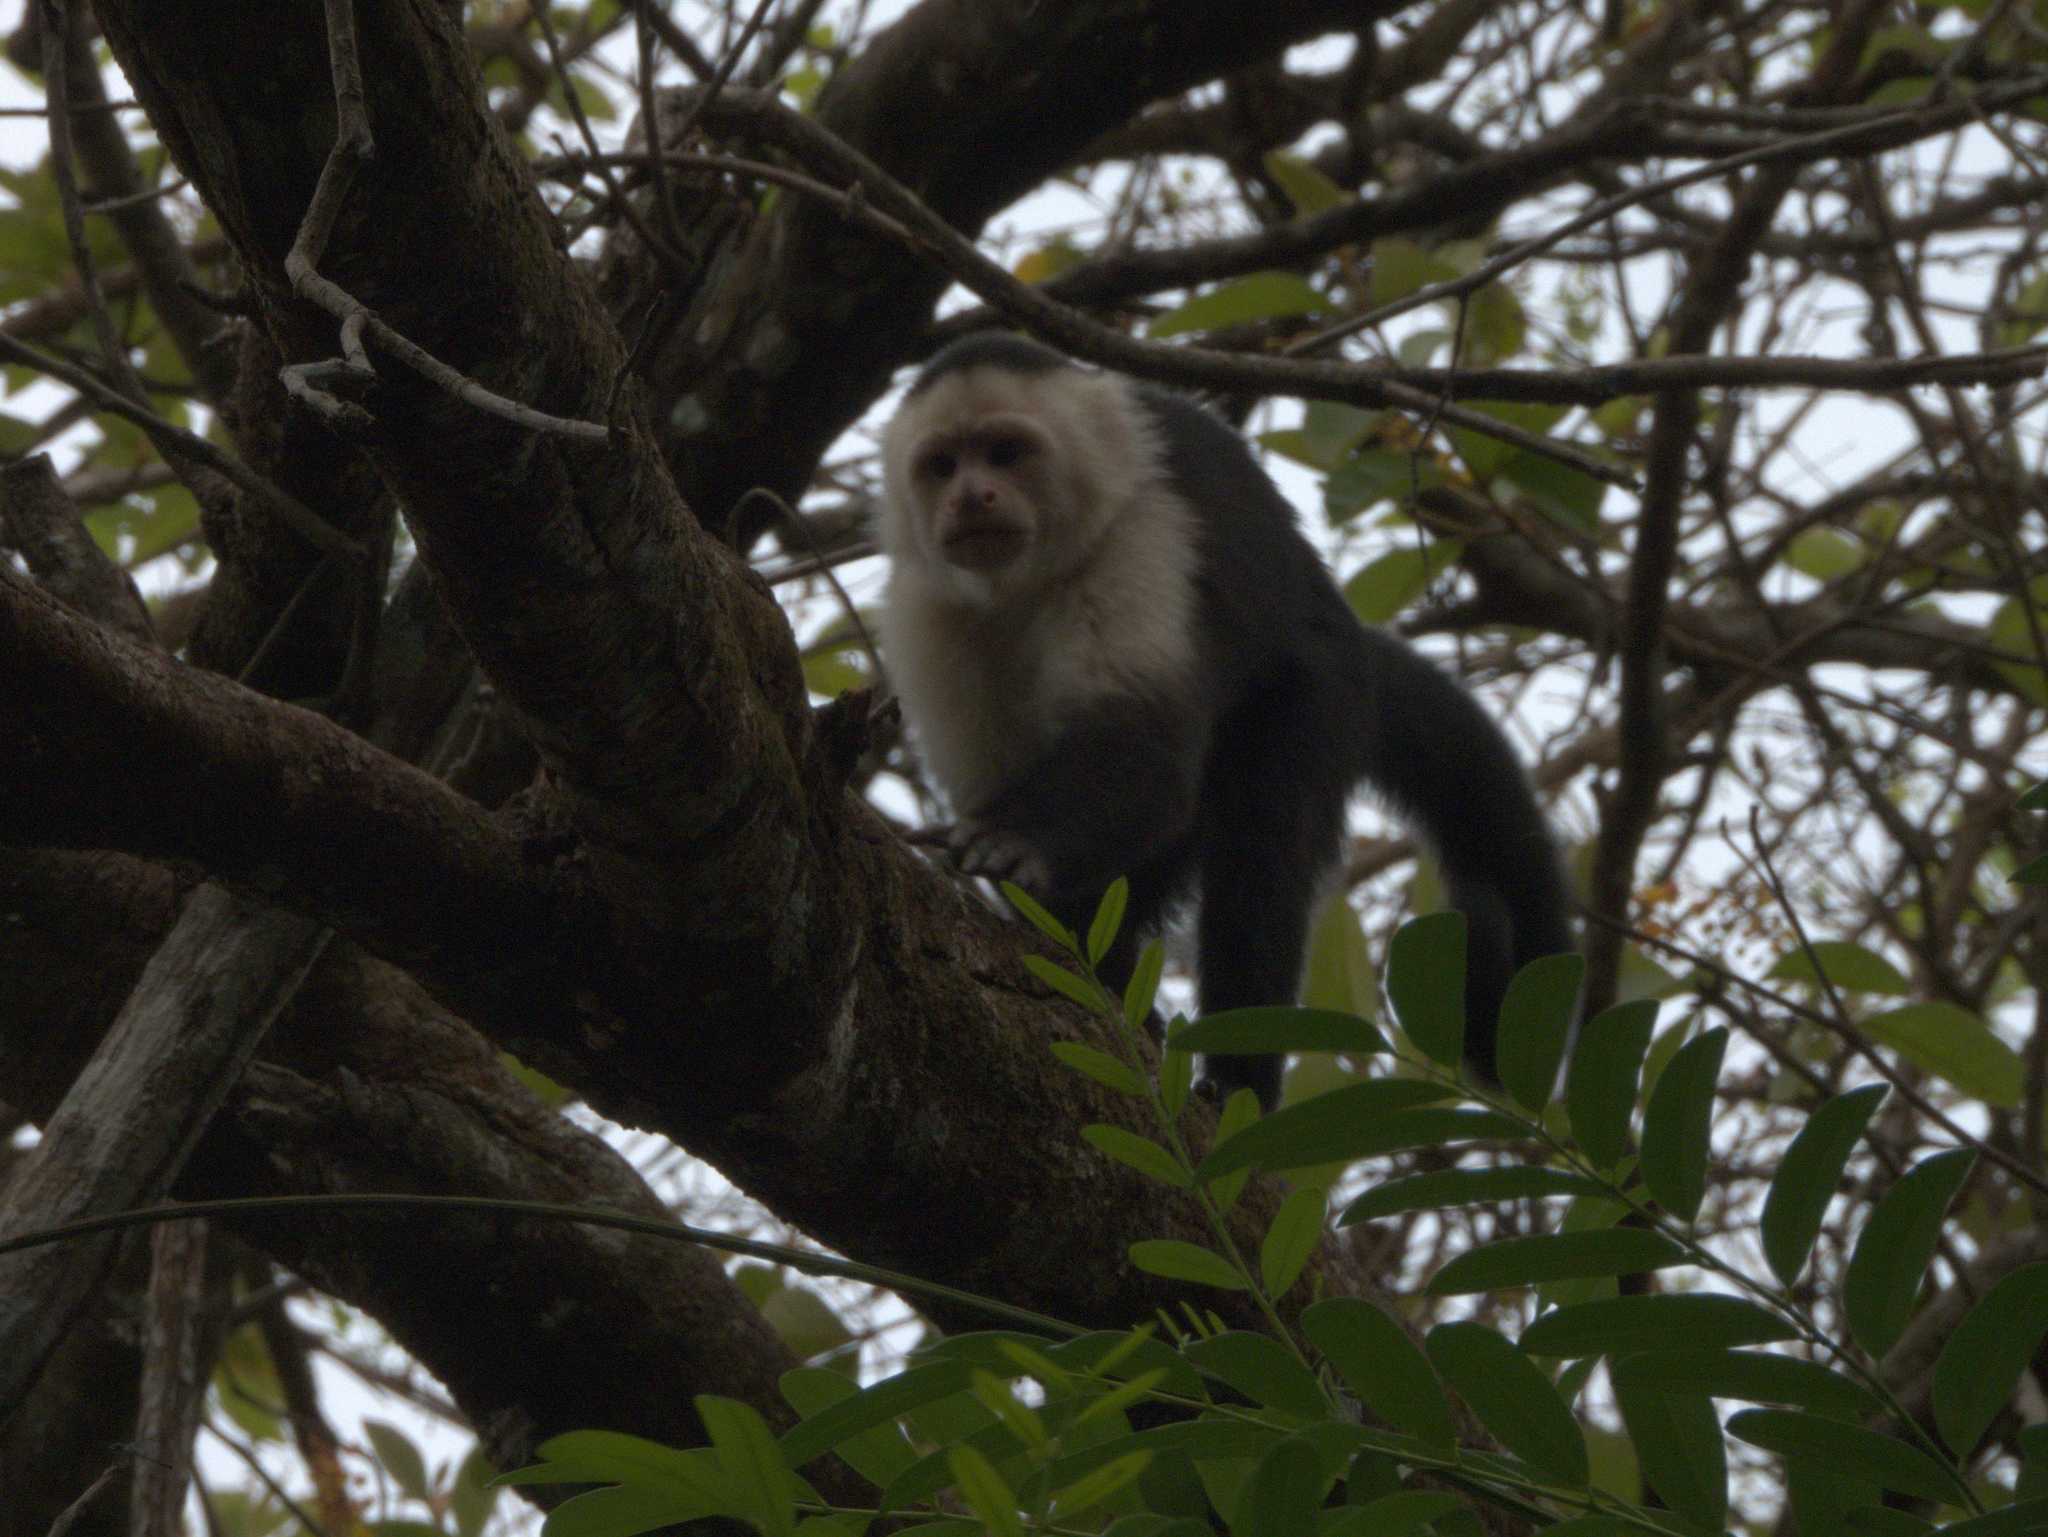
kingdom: Animalia
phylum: Chordata
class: Mammalia
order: Primates
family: Cebidae
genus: Cebus
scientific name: Cebus imitator
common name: Panamanian white-faced capuchin
